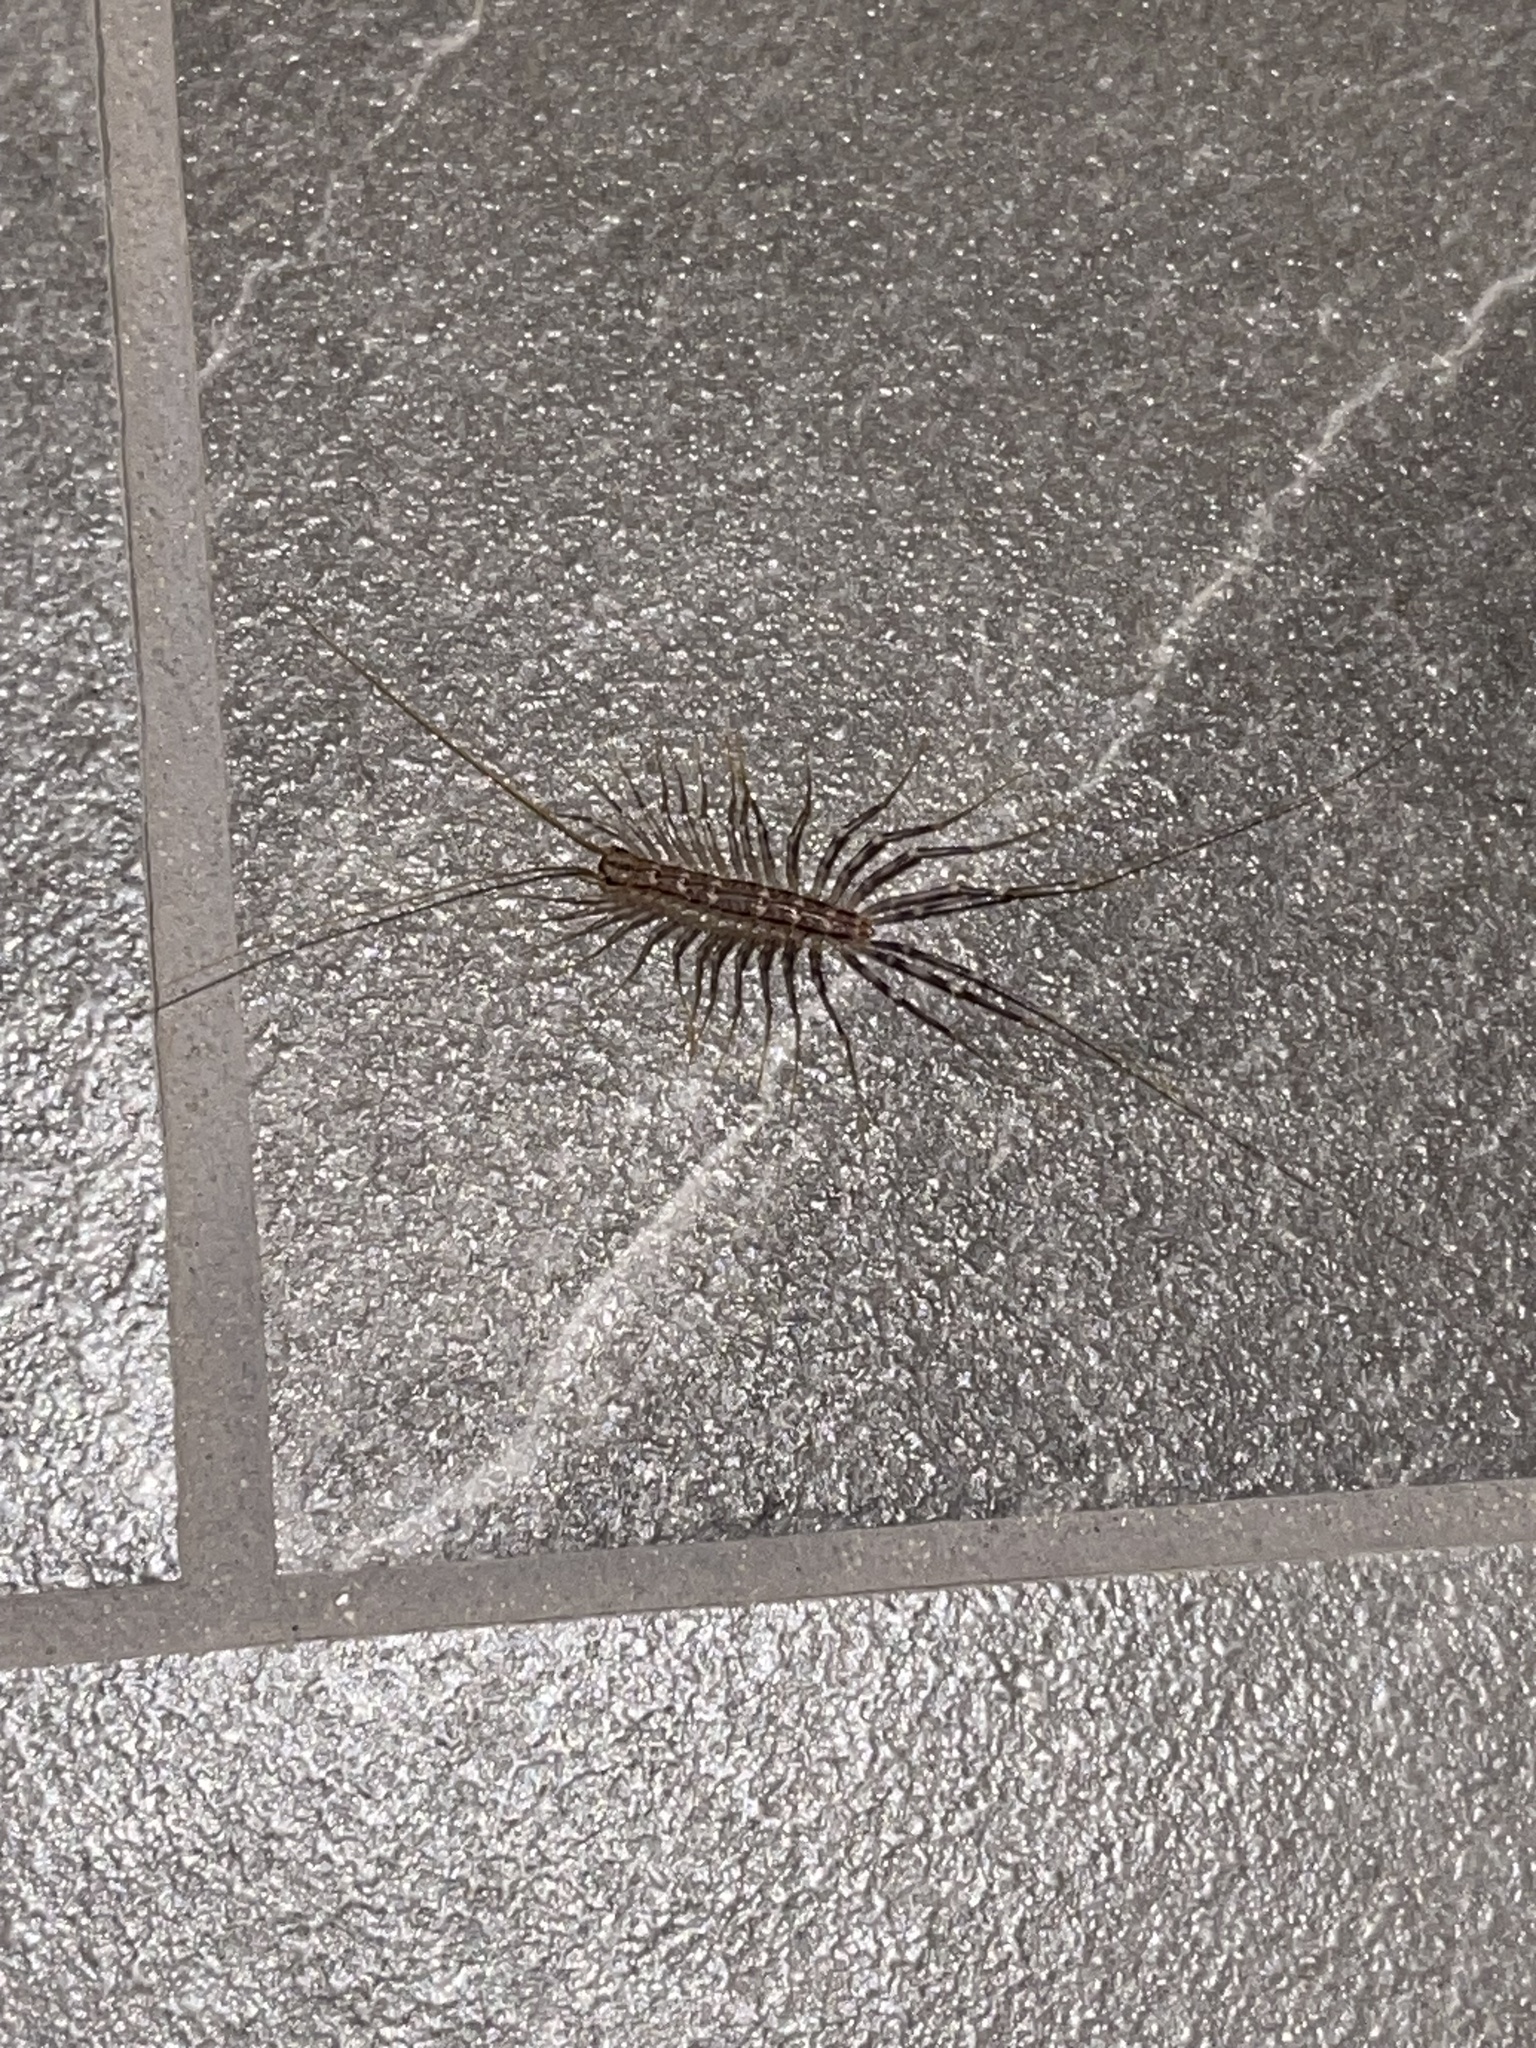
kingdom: Animalia
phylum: Arthropoda
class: Chilopoda
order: Scutigeromorpha
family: Scutigeridae
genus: Scutigera
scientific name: Scutigera coleoptrata
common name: House centipede
